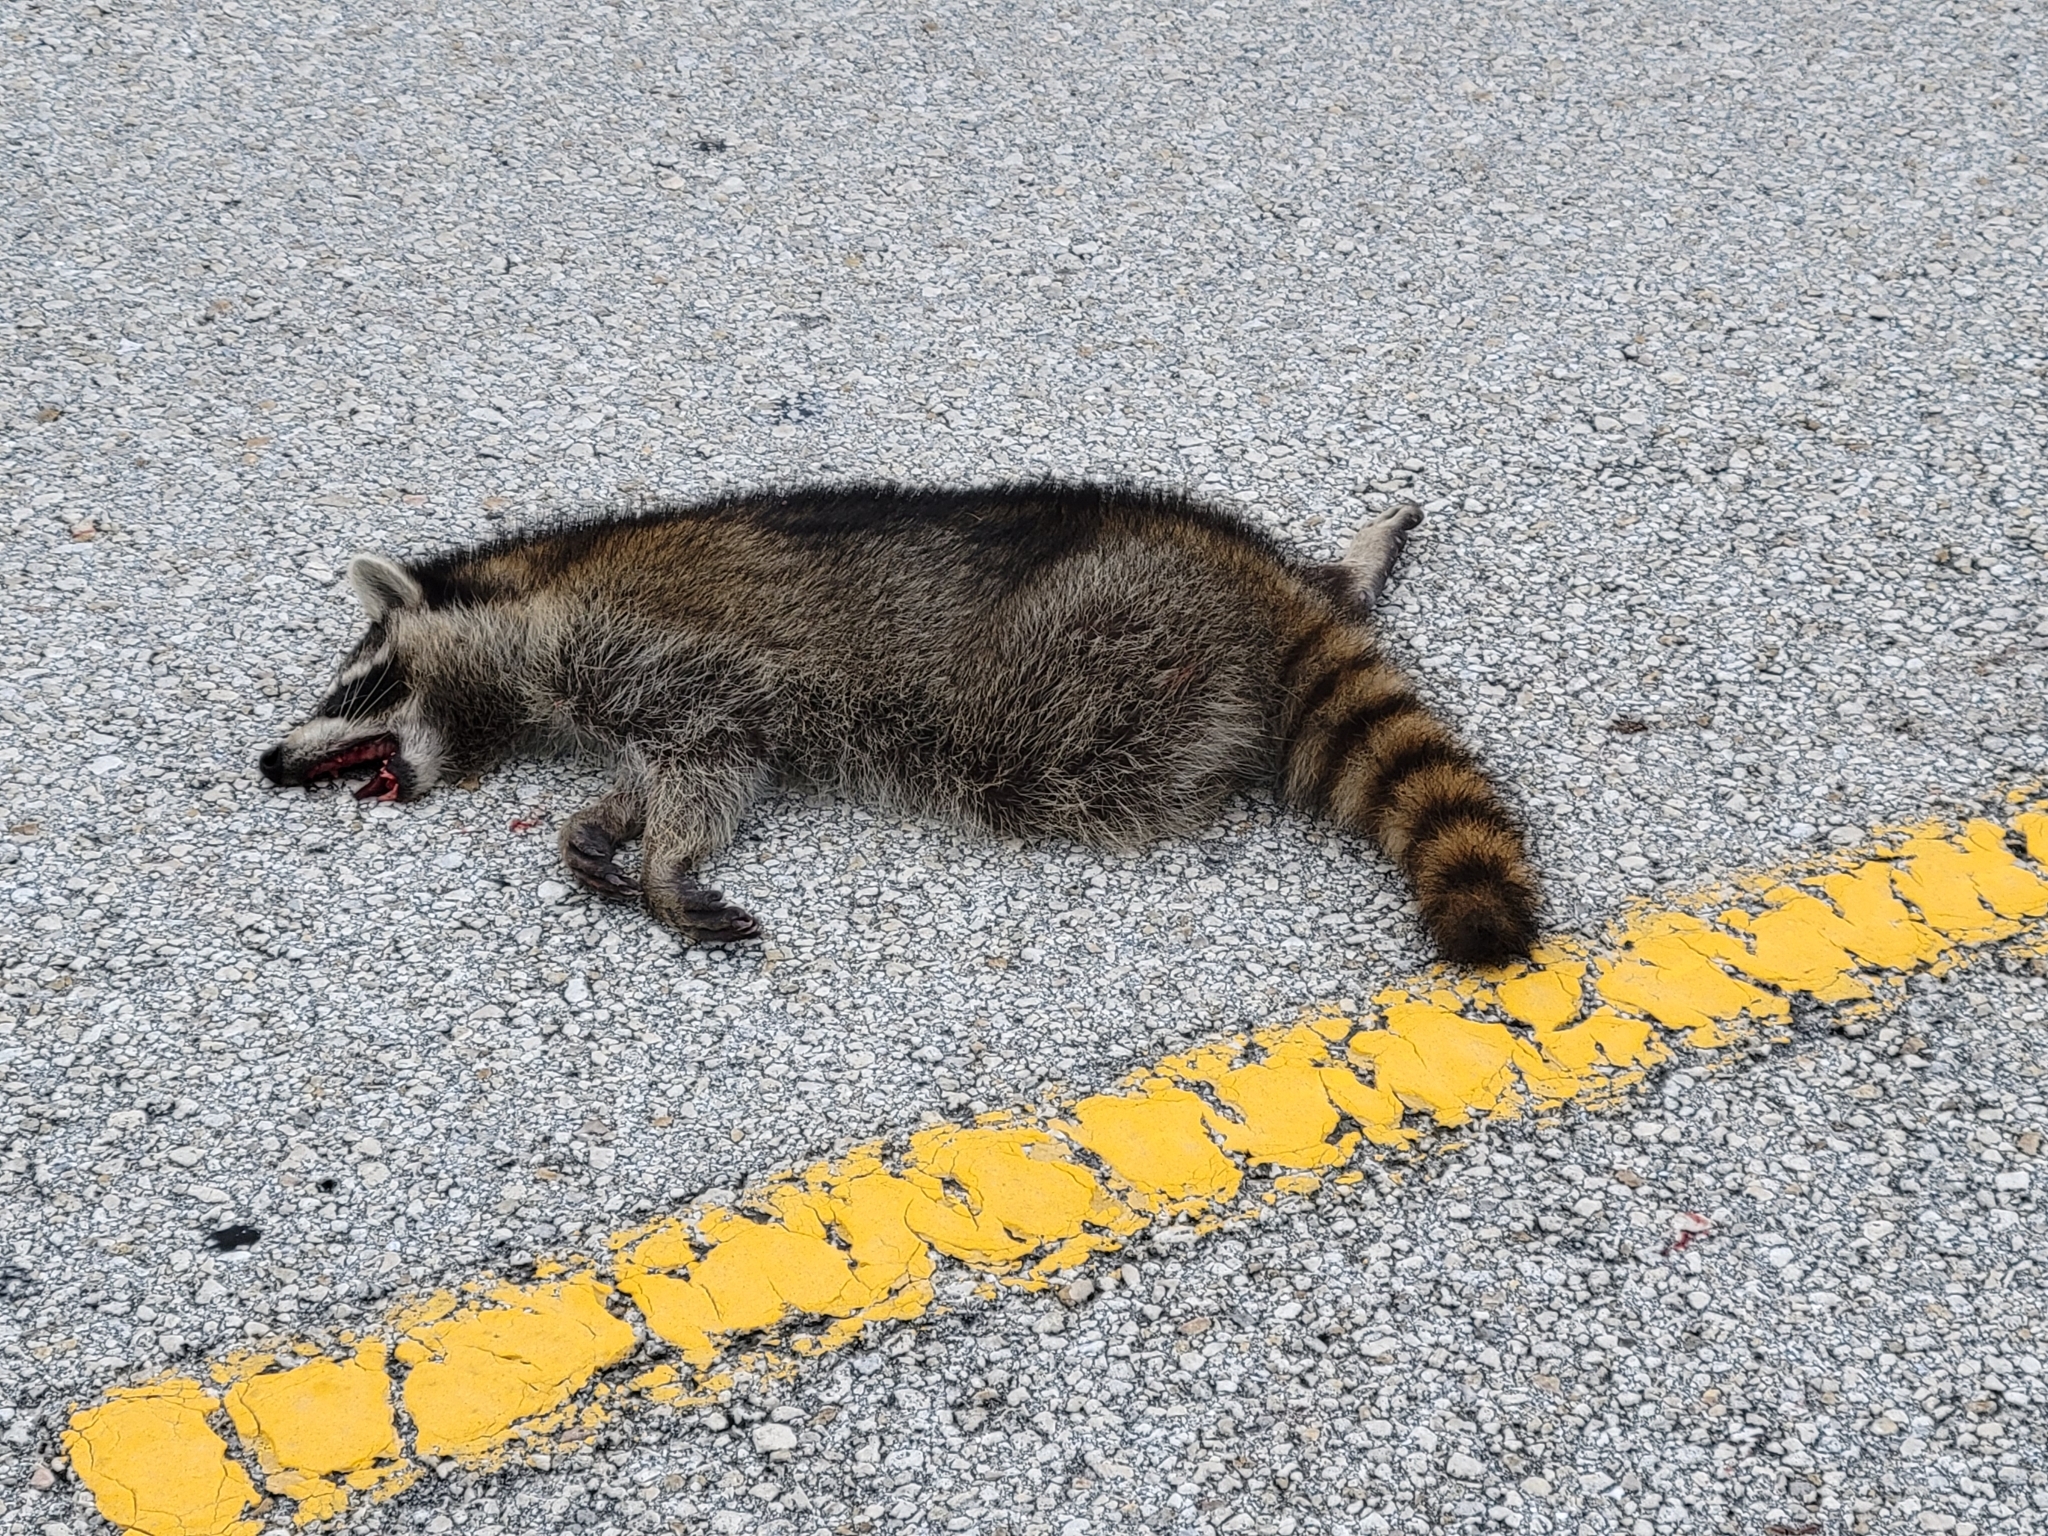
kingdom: Animalia
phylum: Chordata
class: Mammalia
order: Carnivora
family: Procyonidae
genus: Procyon
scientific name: Procyon lotor
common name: Raccoon
